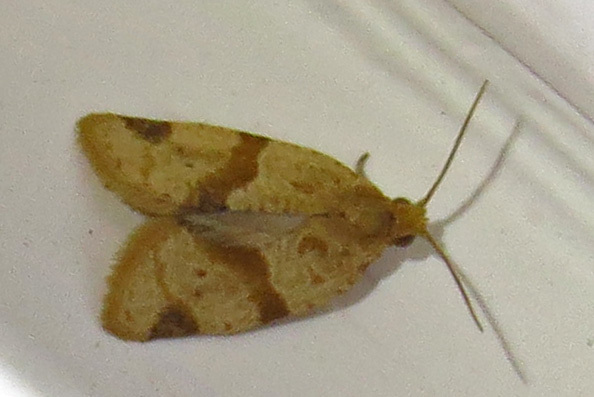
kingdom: Animalia
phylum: Arthropoda
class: Insecta
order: Lepidoptera
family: Tortricidae
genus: Clepsis
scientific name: Clepsis peritana
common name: Garden tortrix
